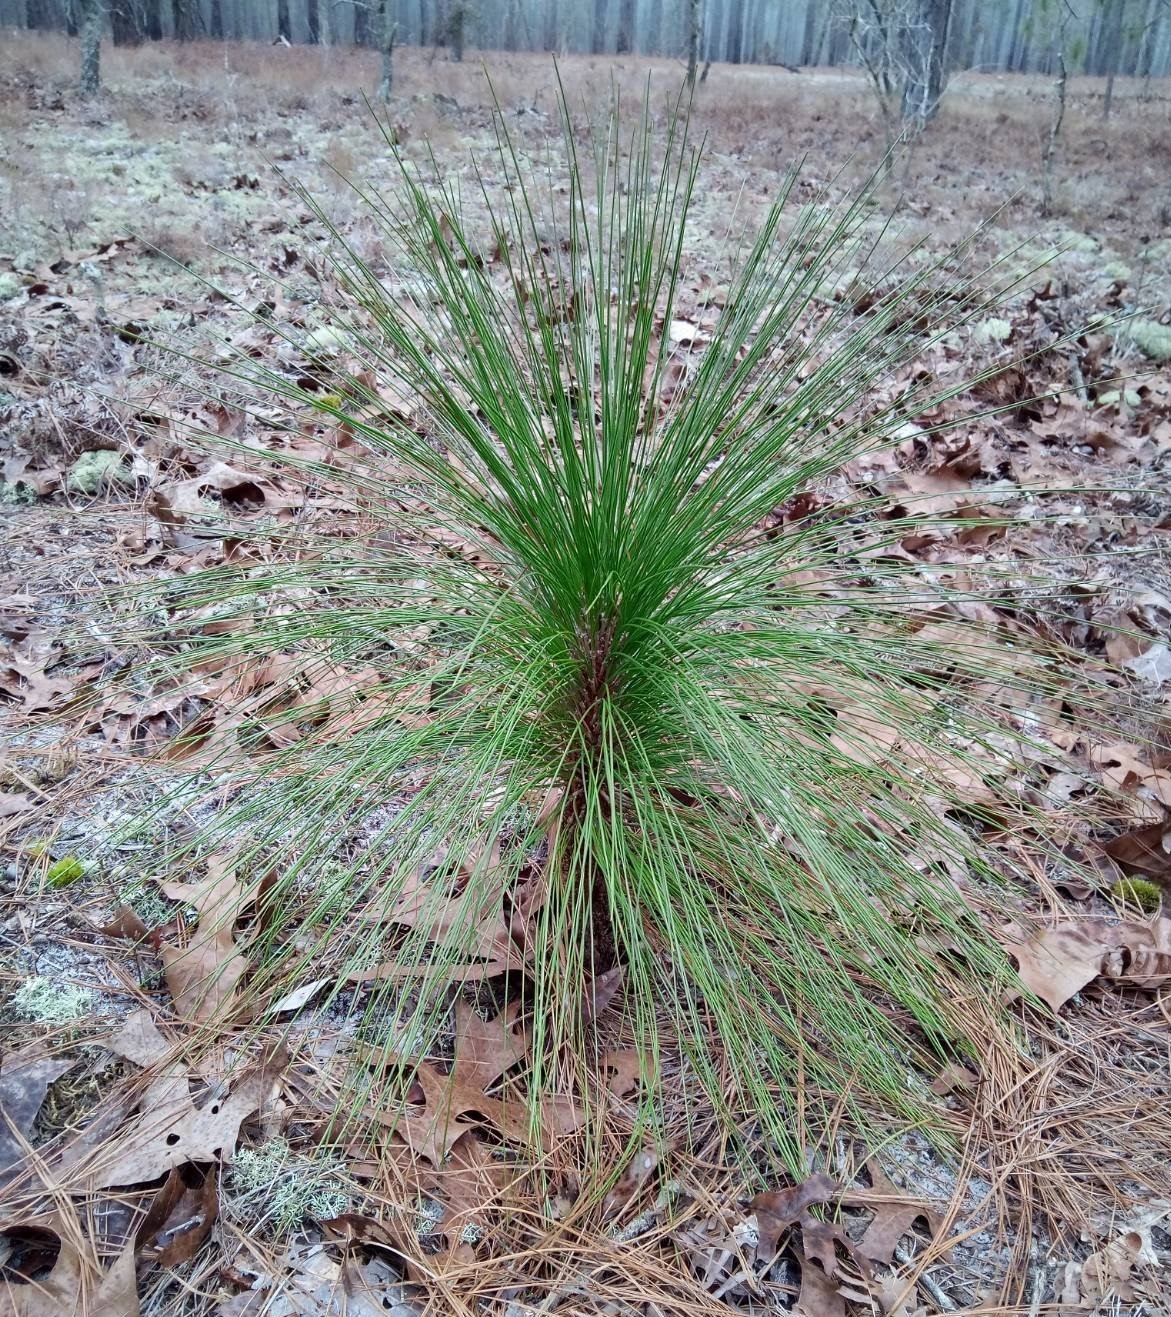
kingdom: Plantae
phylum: Tracheophyta
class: Pinopsida
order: Pinales
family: Pinaceae
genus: Pinus
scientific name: Pinus palustris
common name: Longleaf pine
